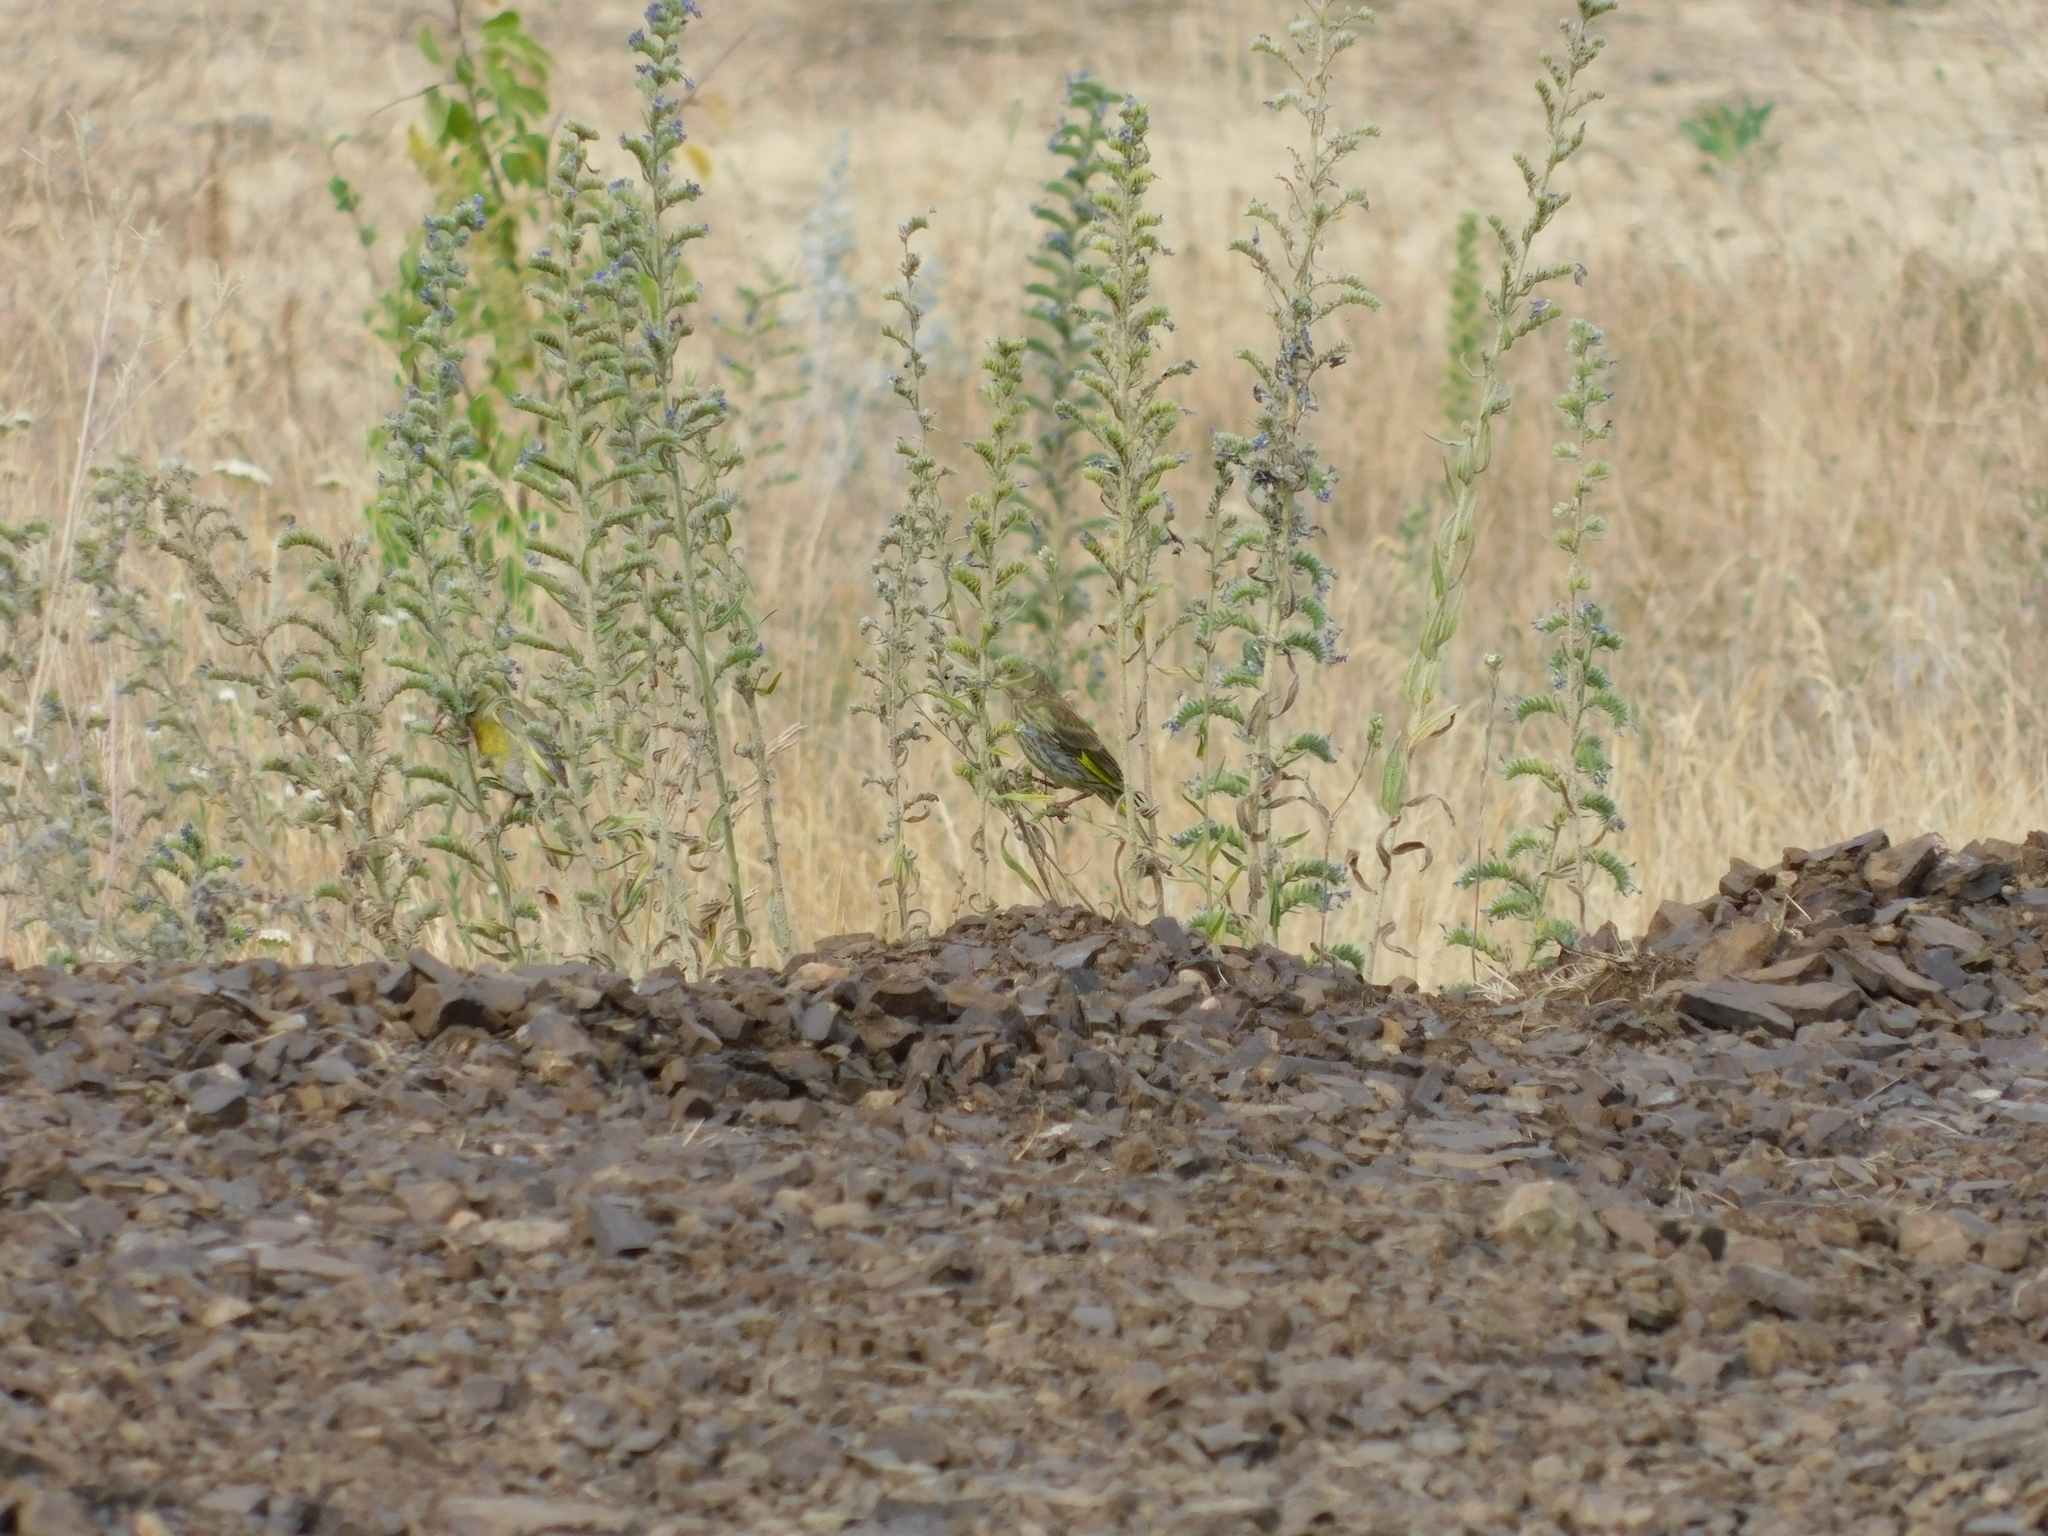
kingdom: Plantae
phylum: Tracheophyta
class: Liliopsida
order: Poales
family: Poaceae
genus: Chloris
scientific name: Chloris chloris
